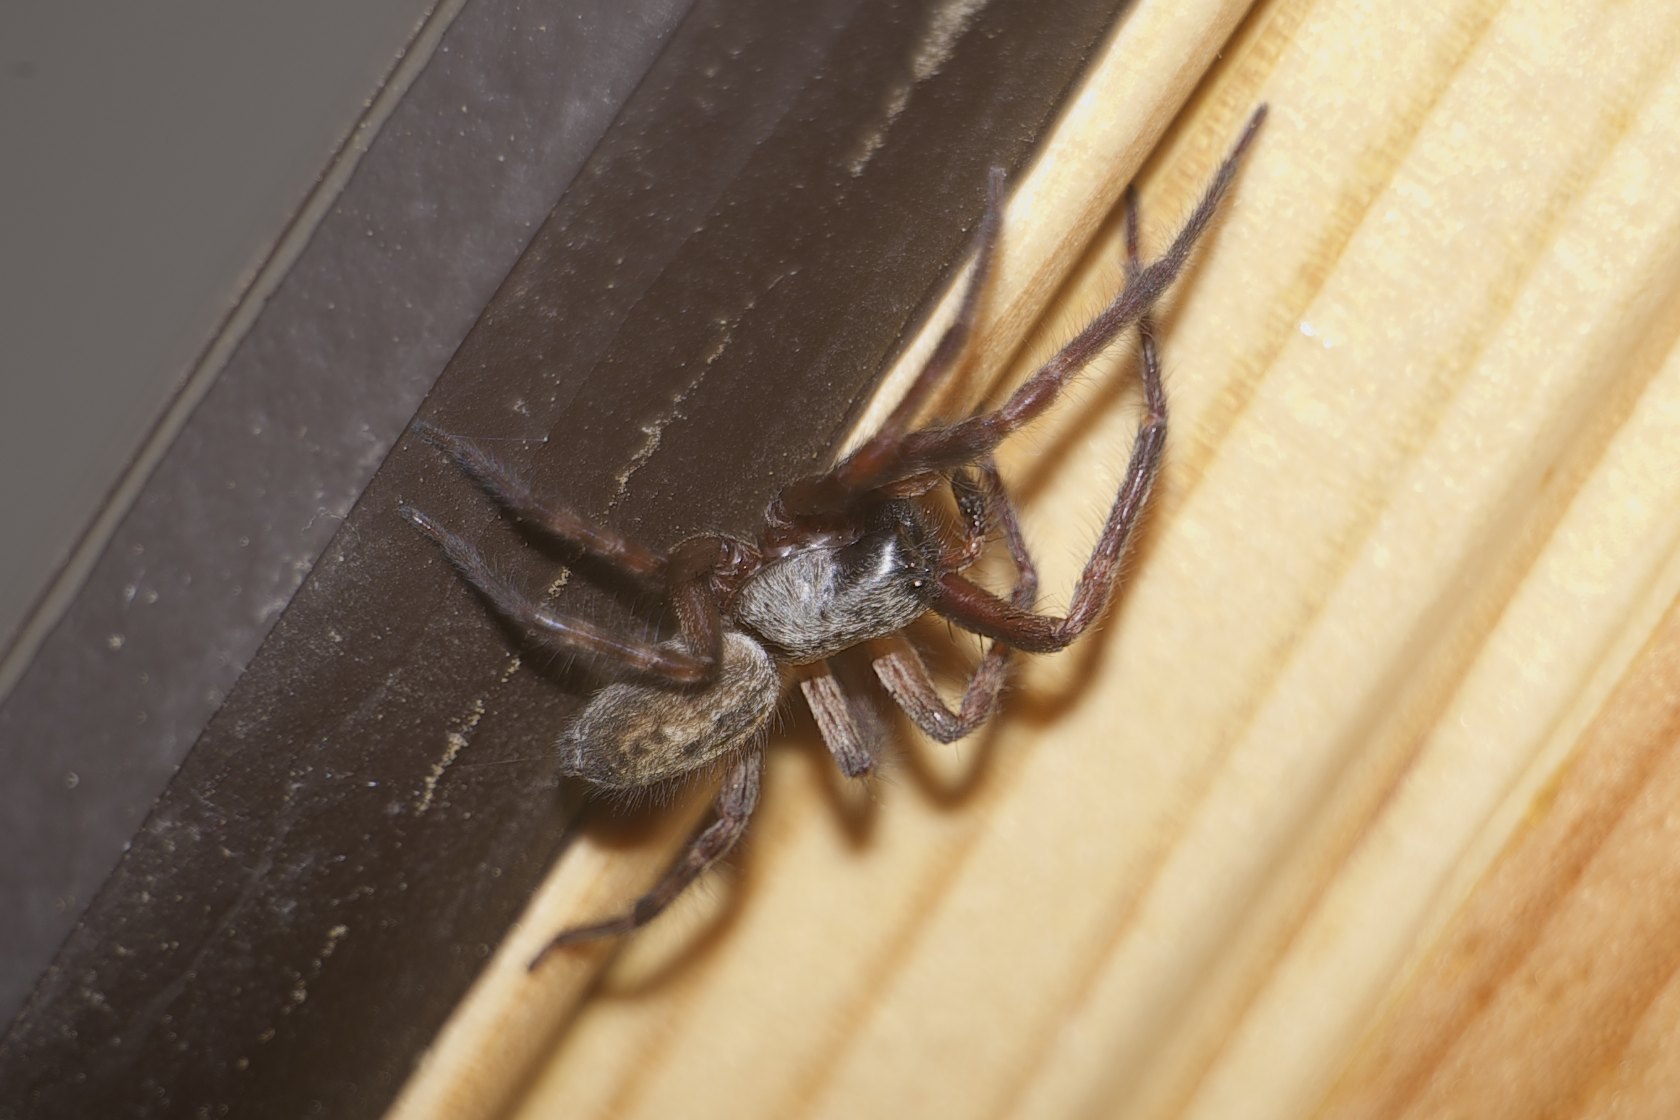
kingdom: Animalia
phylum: Arthropoda
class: Arachnida
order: Araneae
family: Desidae
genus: Badumna
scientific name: Badumna longinqua
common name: Gray house spider
